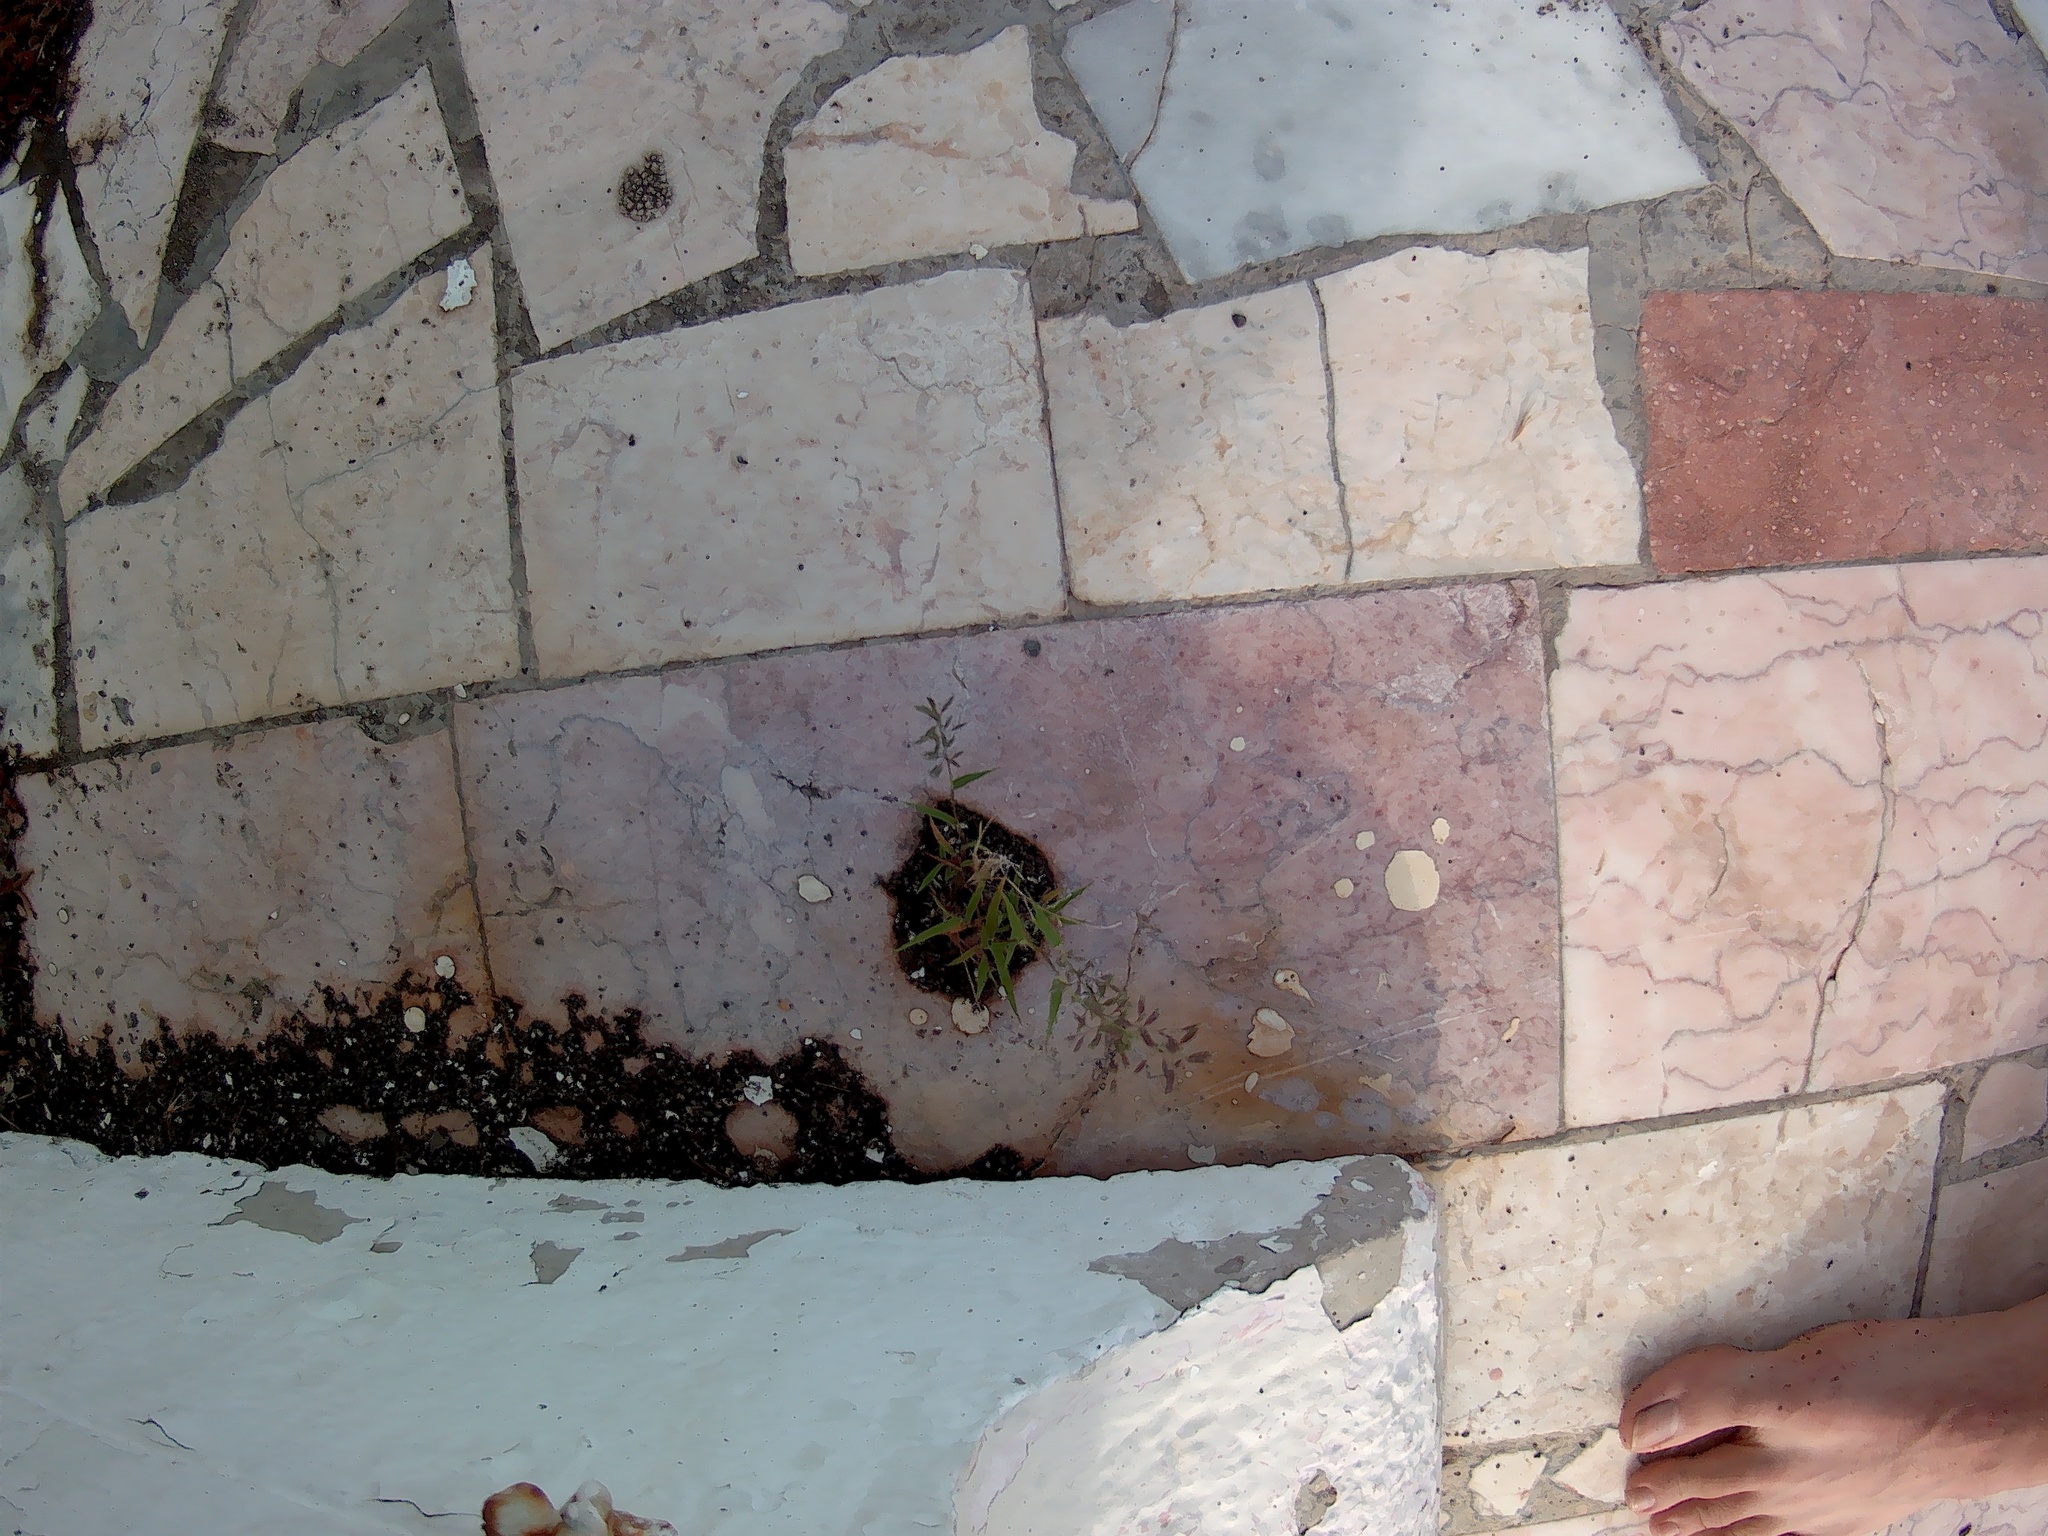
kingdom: Plantae
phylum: Tracheophyta
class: Liliopsida
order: Poales
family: Poaceae
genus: Eragrostis
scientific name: Eragrostis minor
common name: Small love-grass
